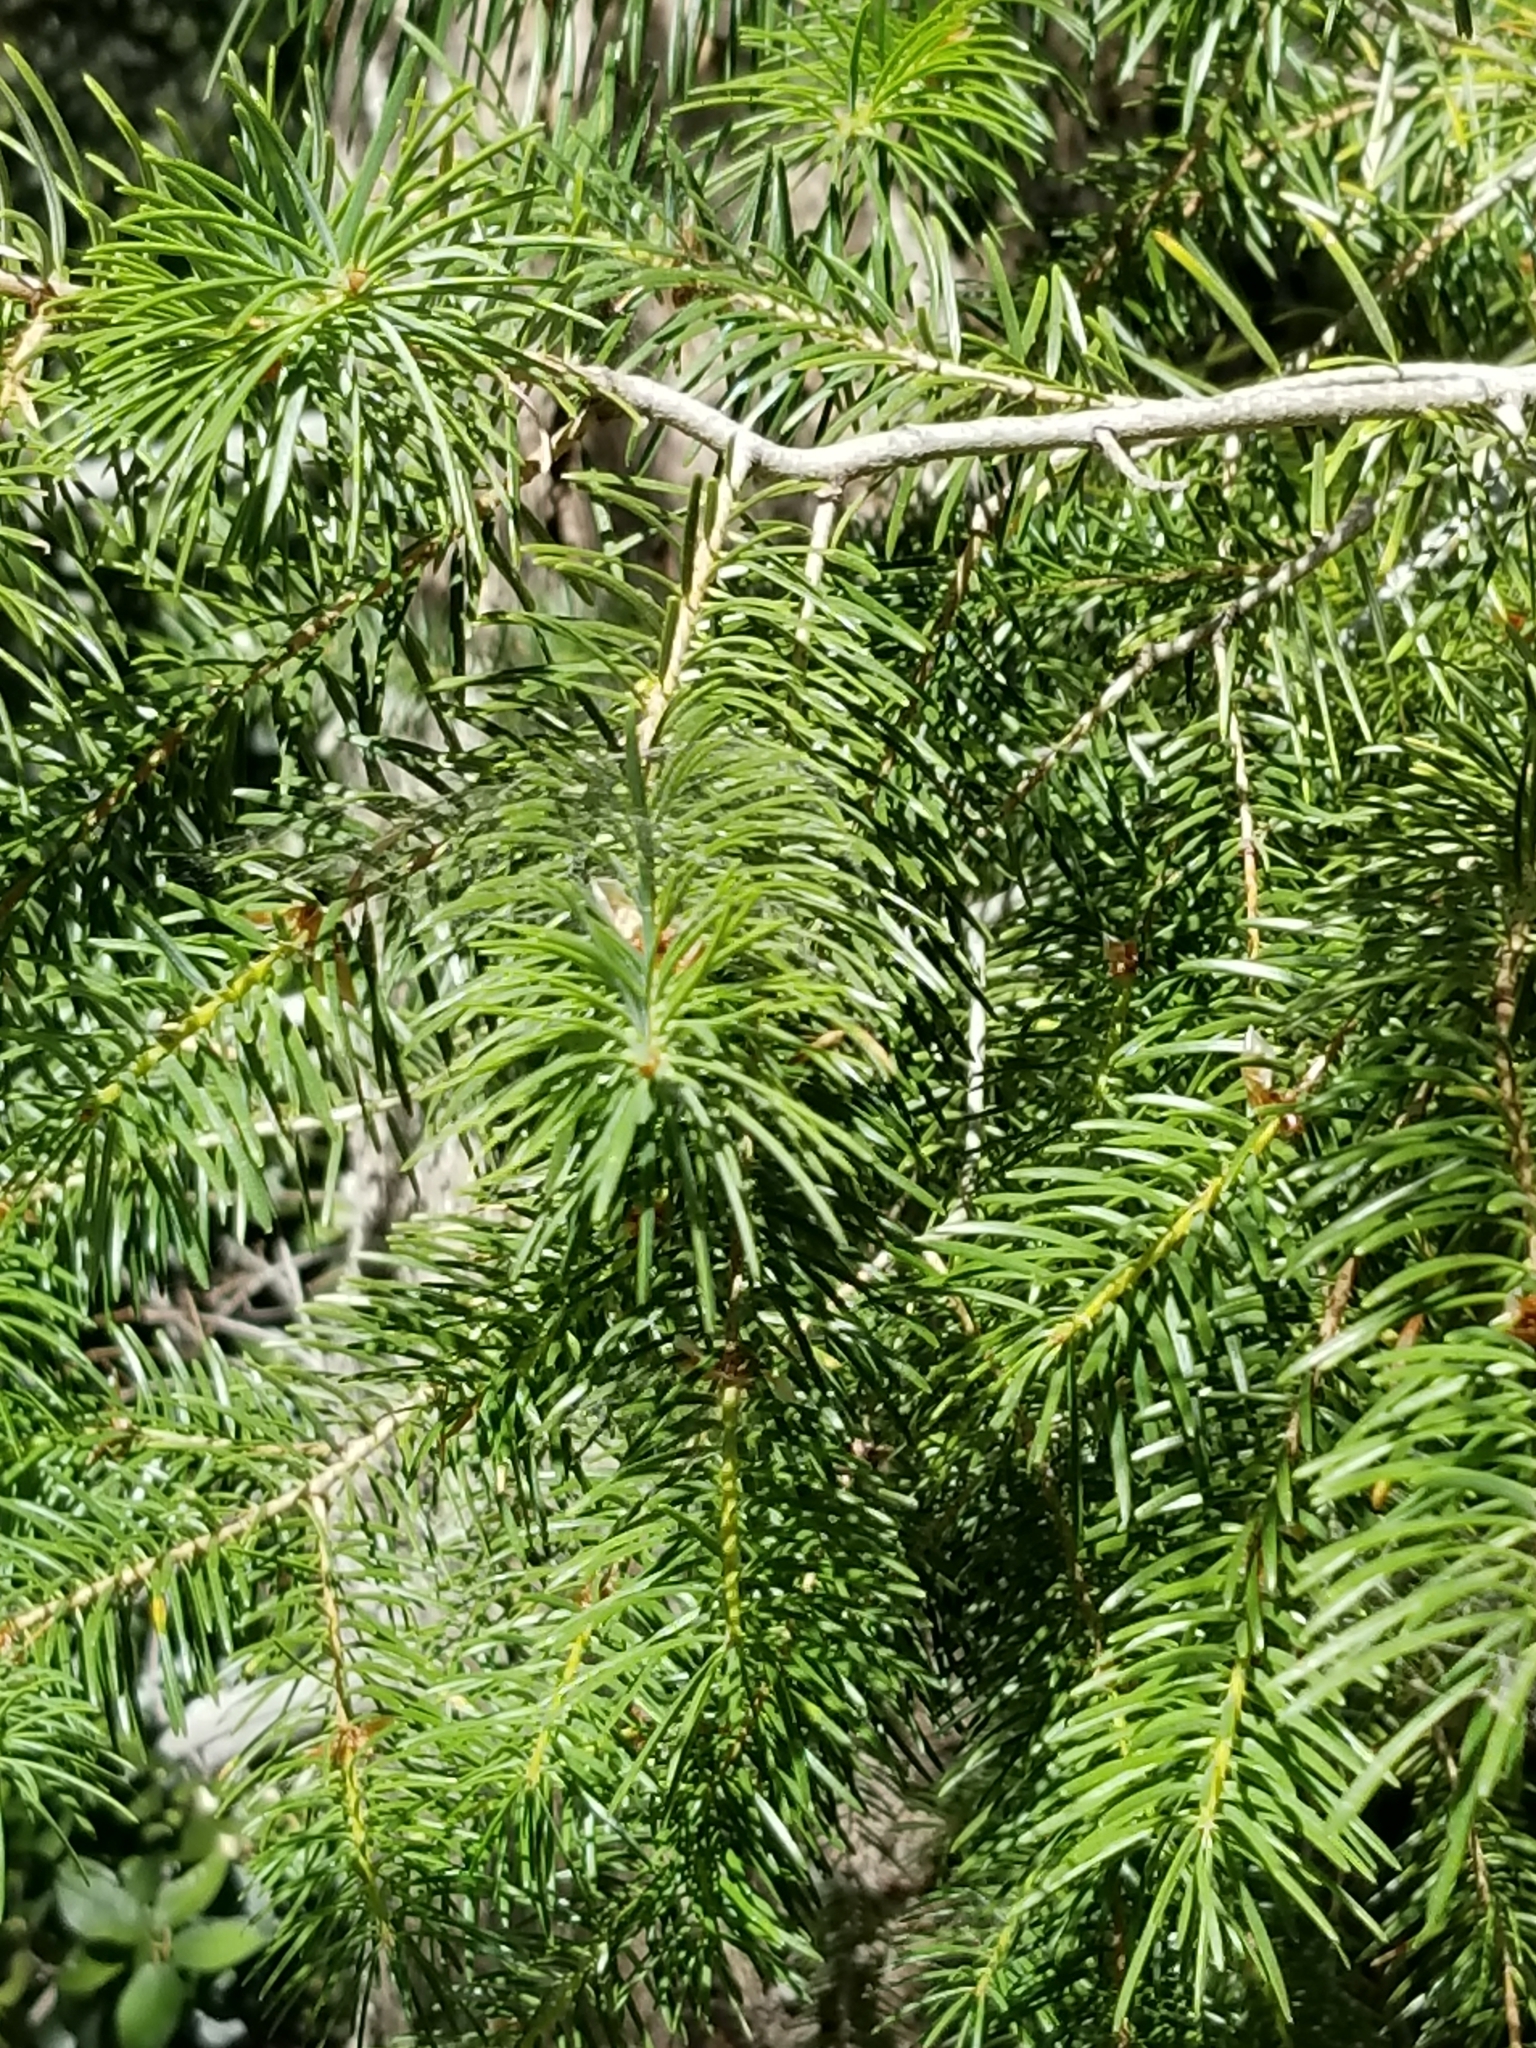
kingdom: Plantae
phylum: Tracheophyta
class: Pinopsida
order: Pinales
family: Pinaceae
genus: Abies
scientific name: Abies concolor
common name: Colorado fir
